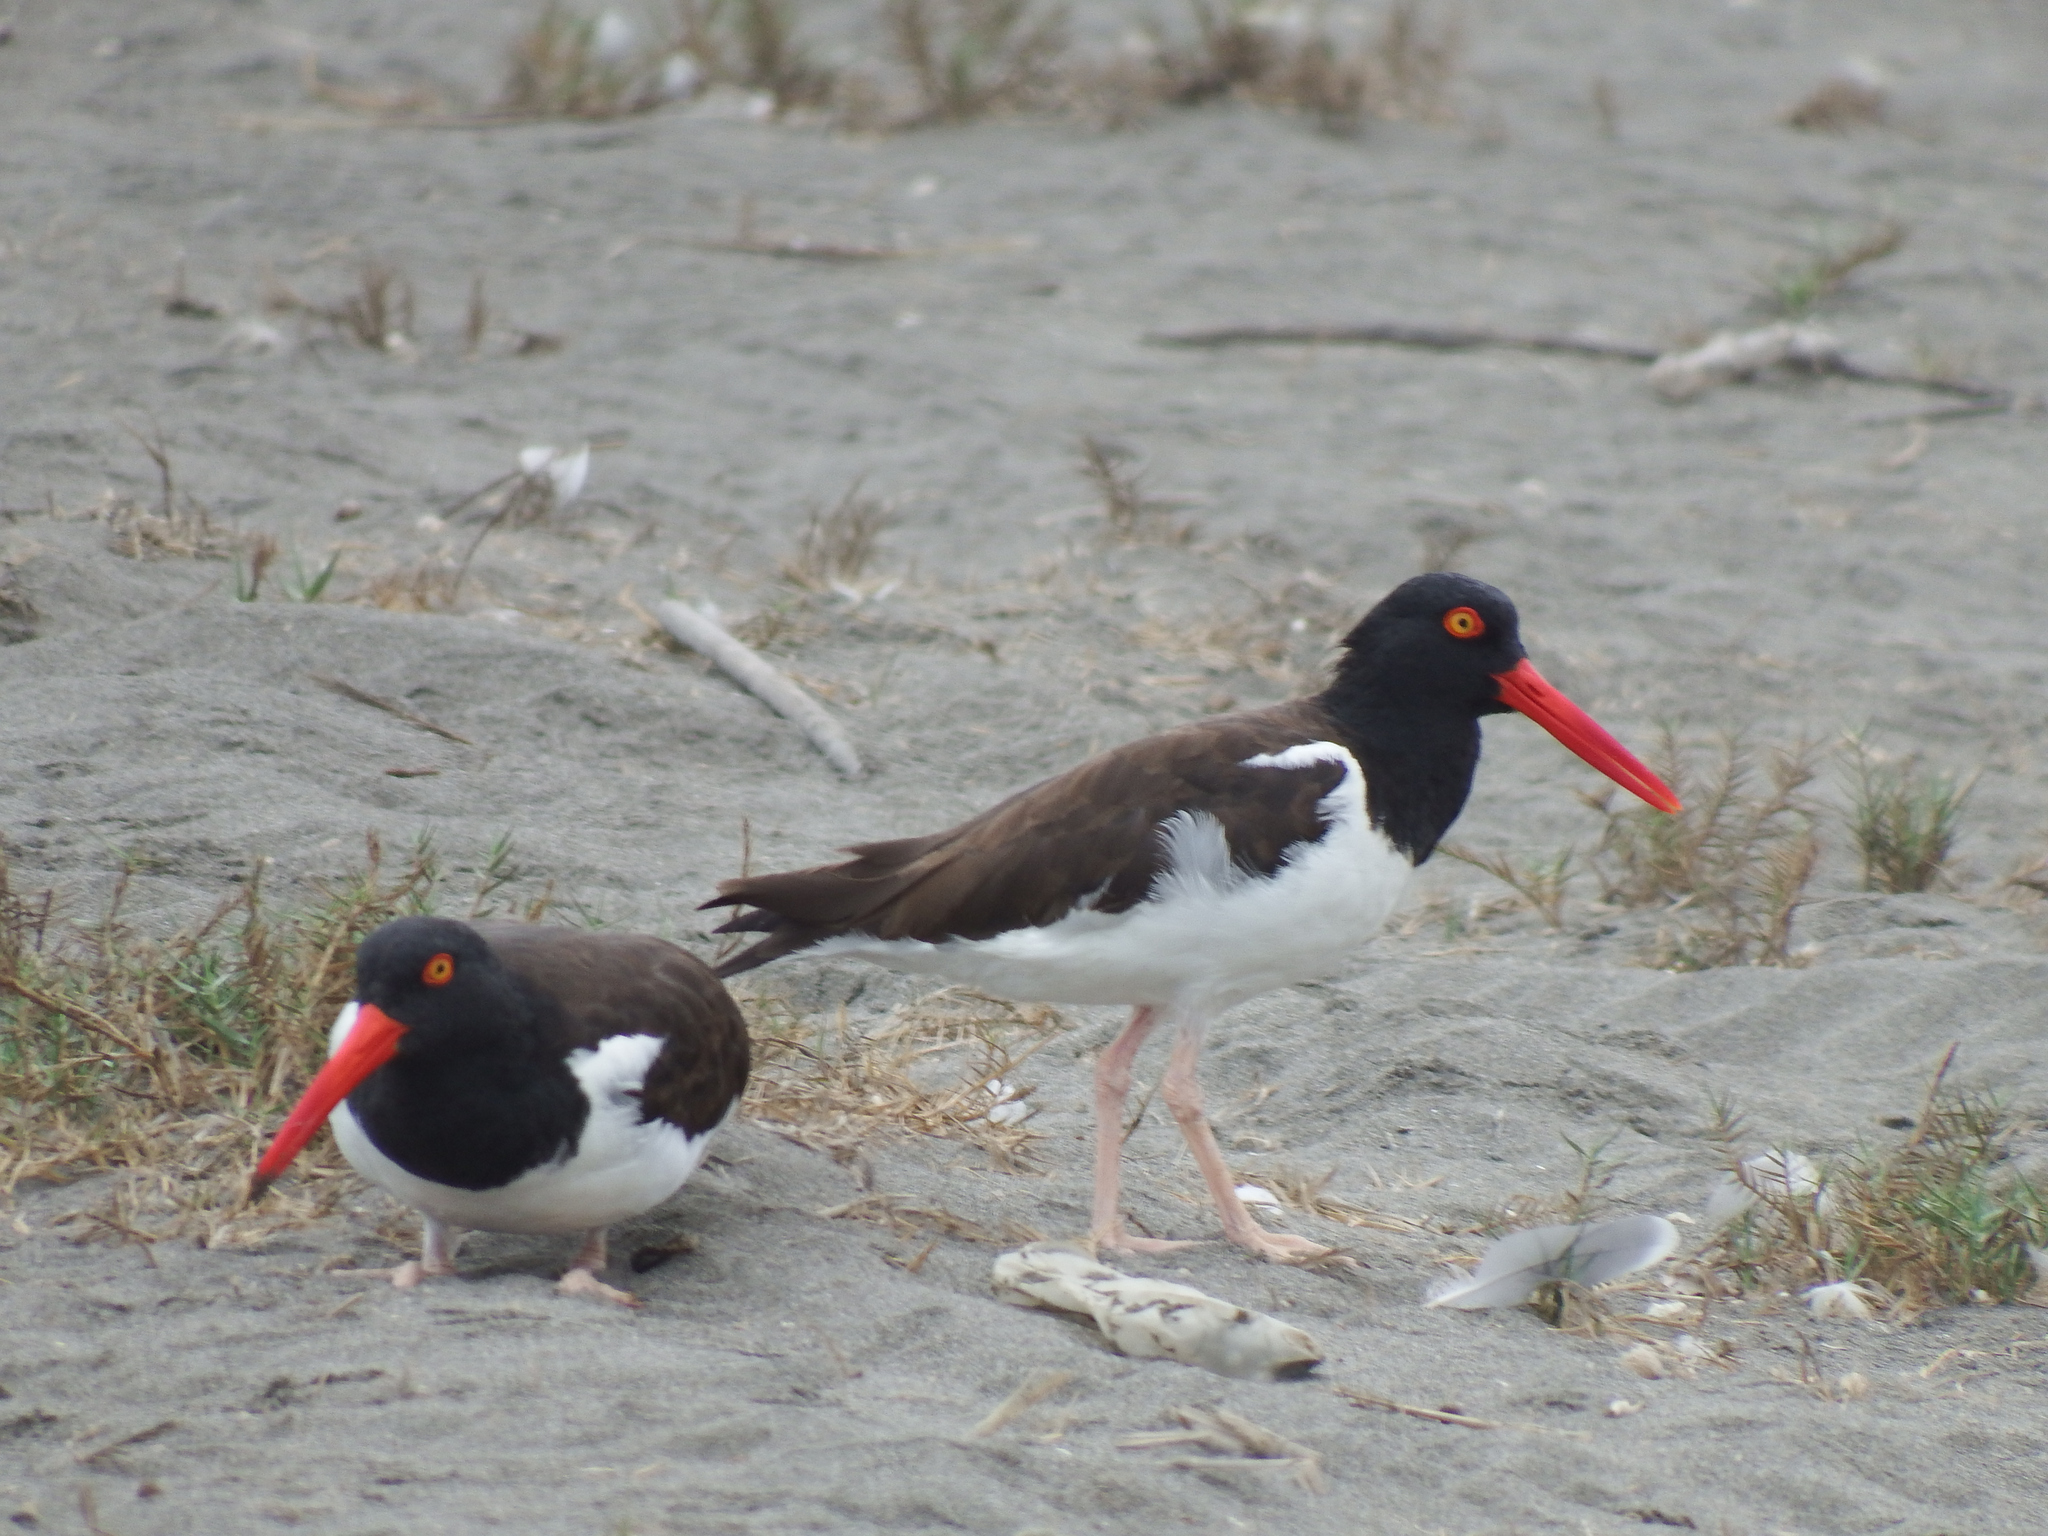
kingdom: Animalia
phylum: Chordata
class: Aves
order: Charadriiformes
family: Haematopodidae
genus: Haematopus
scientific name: Haematopus palliatus
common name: American oystercatcher
